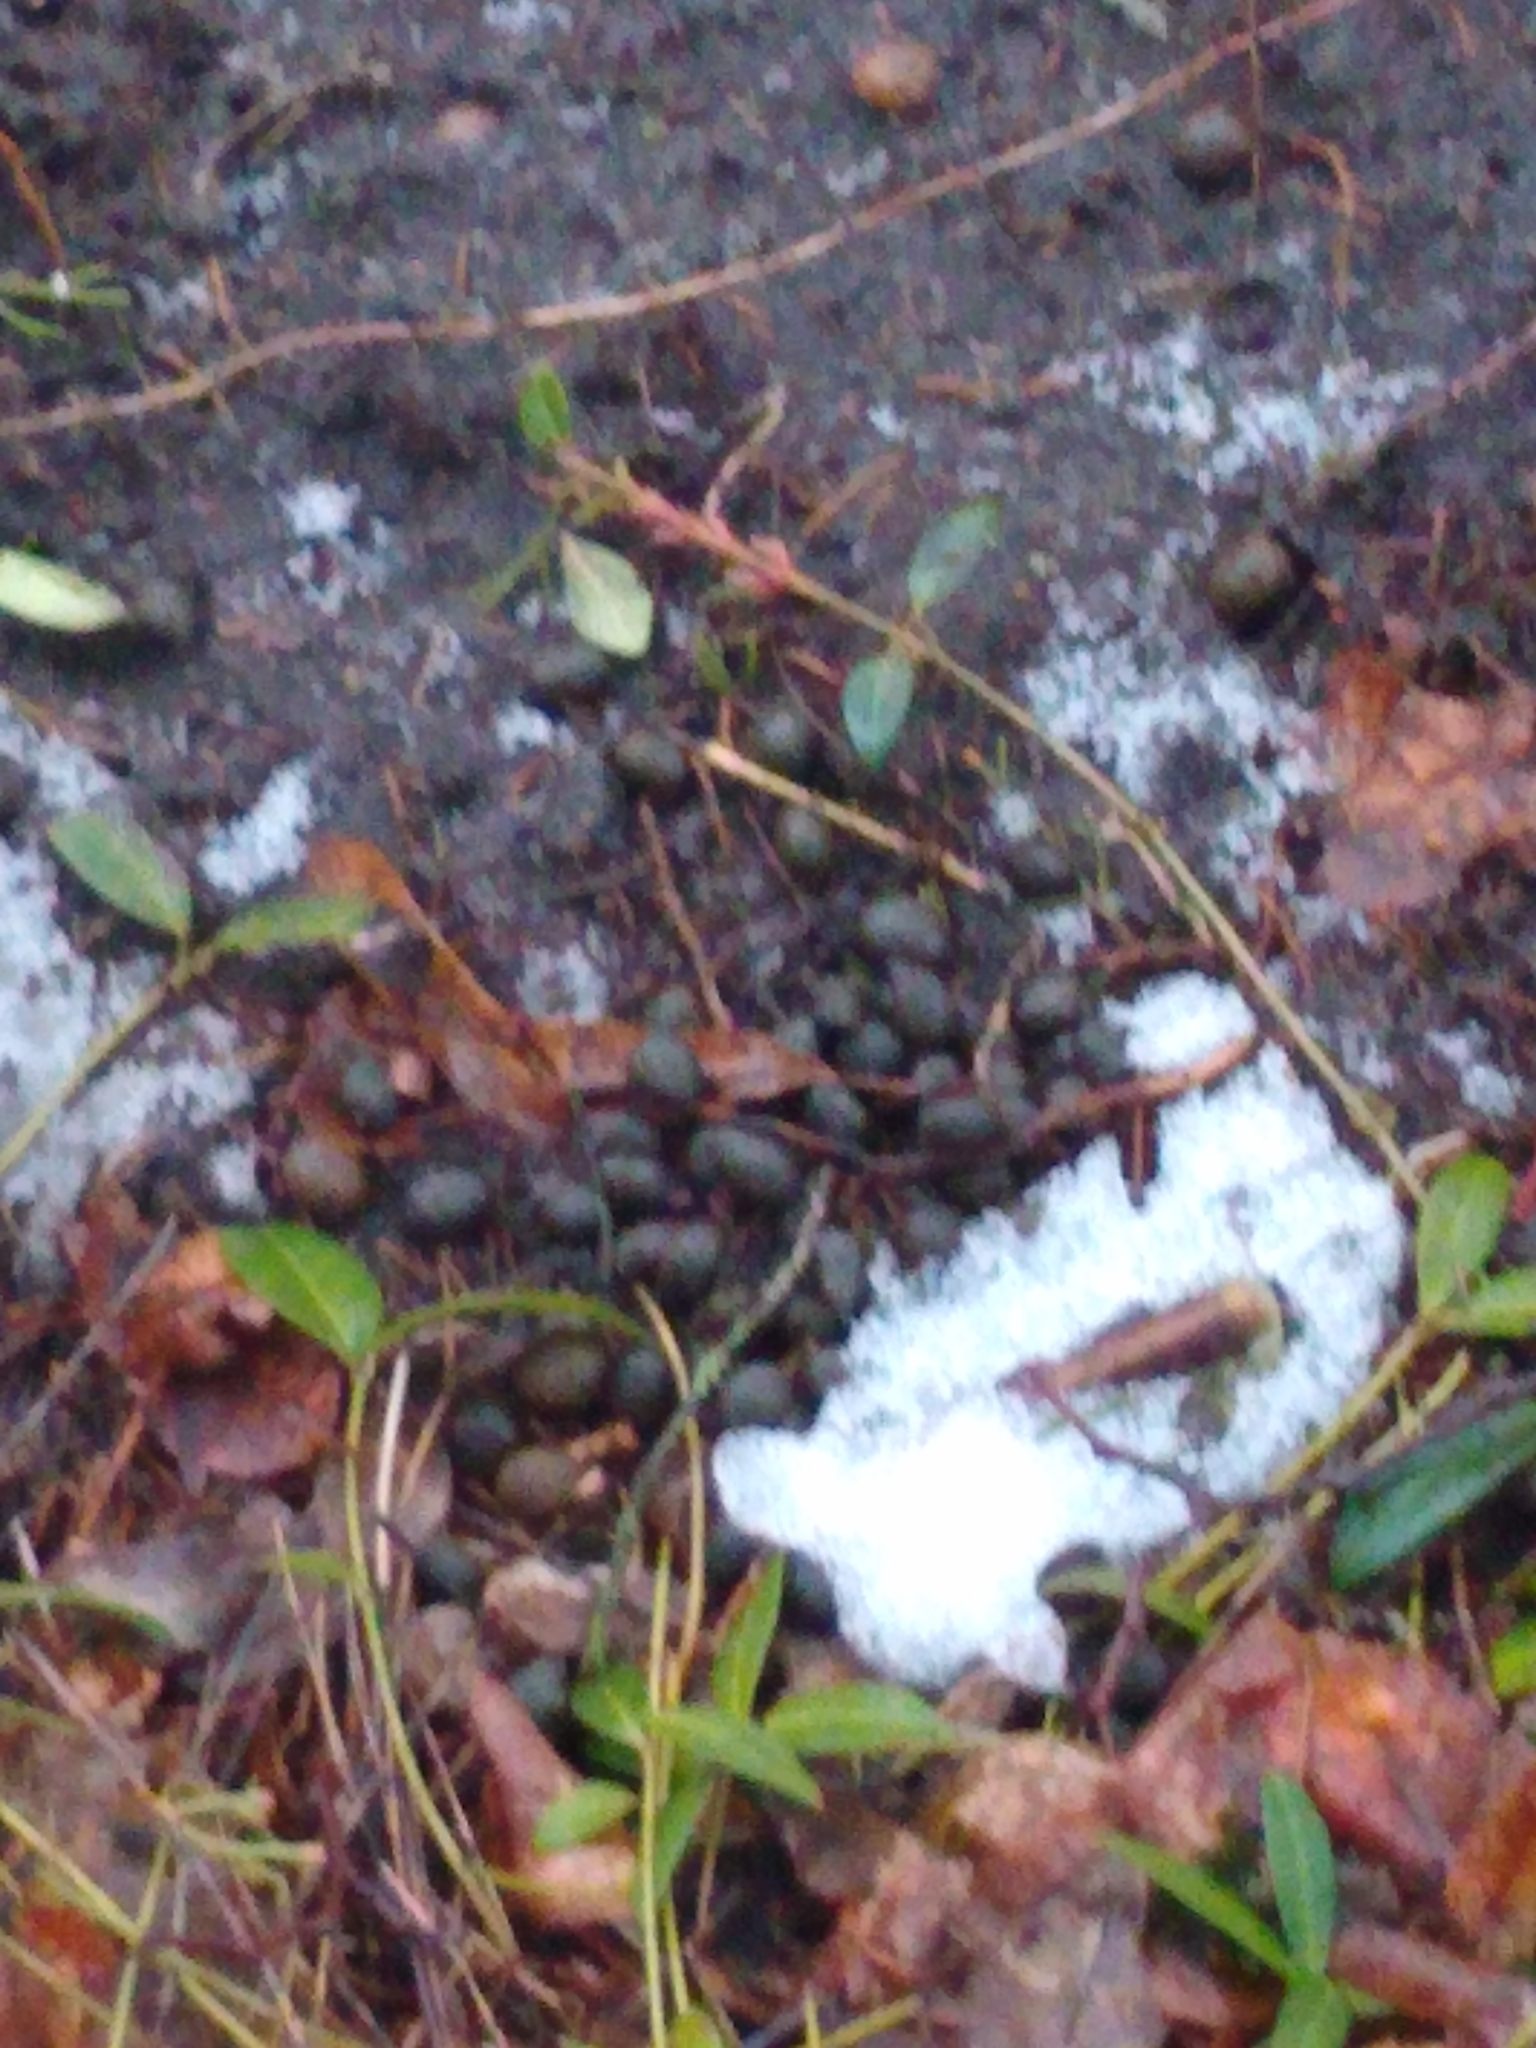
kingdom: Animalia
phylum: Chordata
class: Mammalia
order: Artiodactyla
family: Cervidae
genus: Odocoileus
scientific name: Odocoileus virginianus
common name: White-tailed deer
